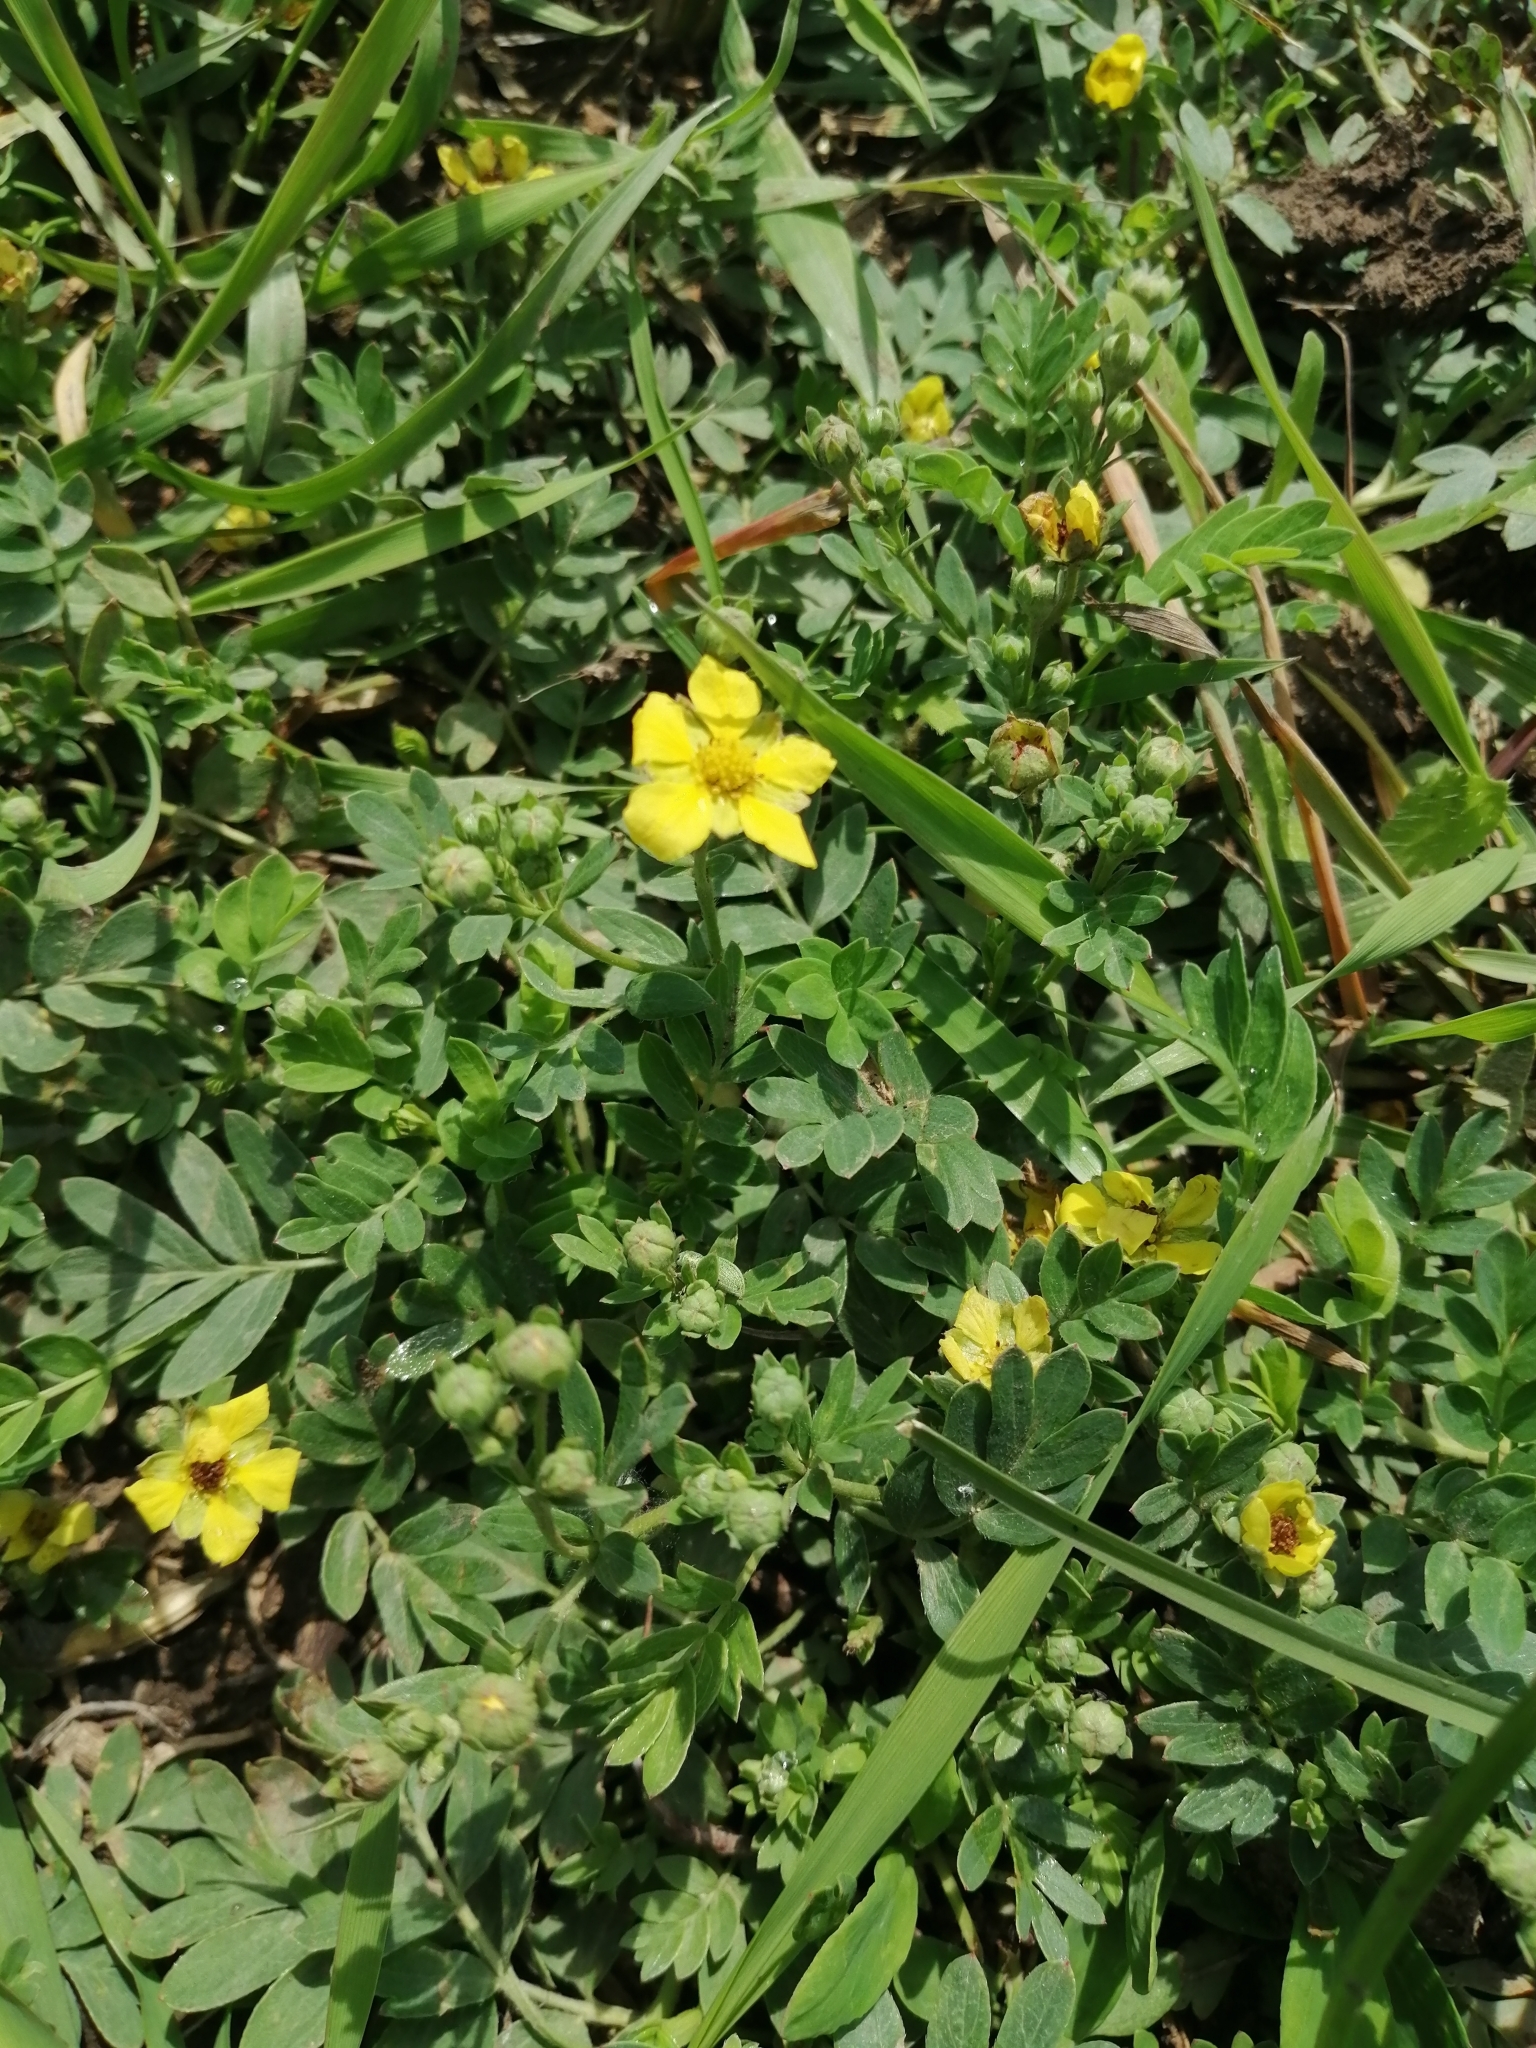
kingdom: Plantae
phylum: Tracheophyta
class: Magnoliopsida
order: Rosales
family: Rosaceae
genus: Sibbaldianthe
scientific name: Sibbaldianthe bifurca
